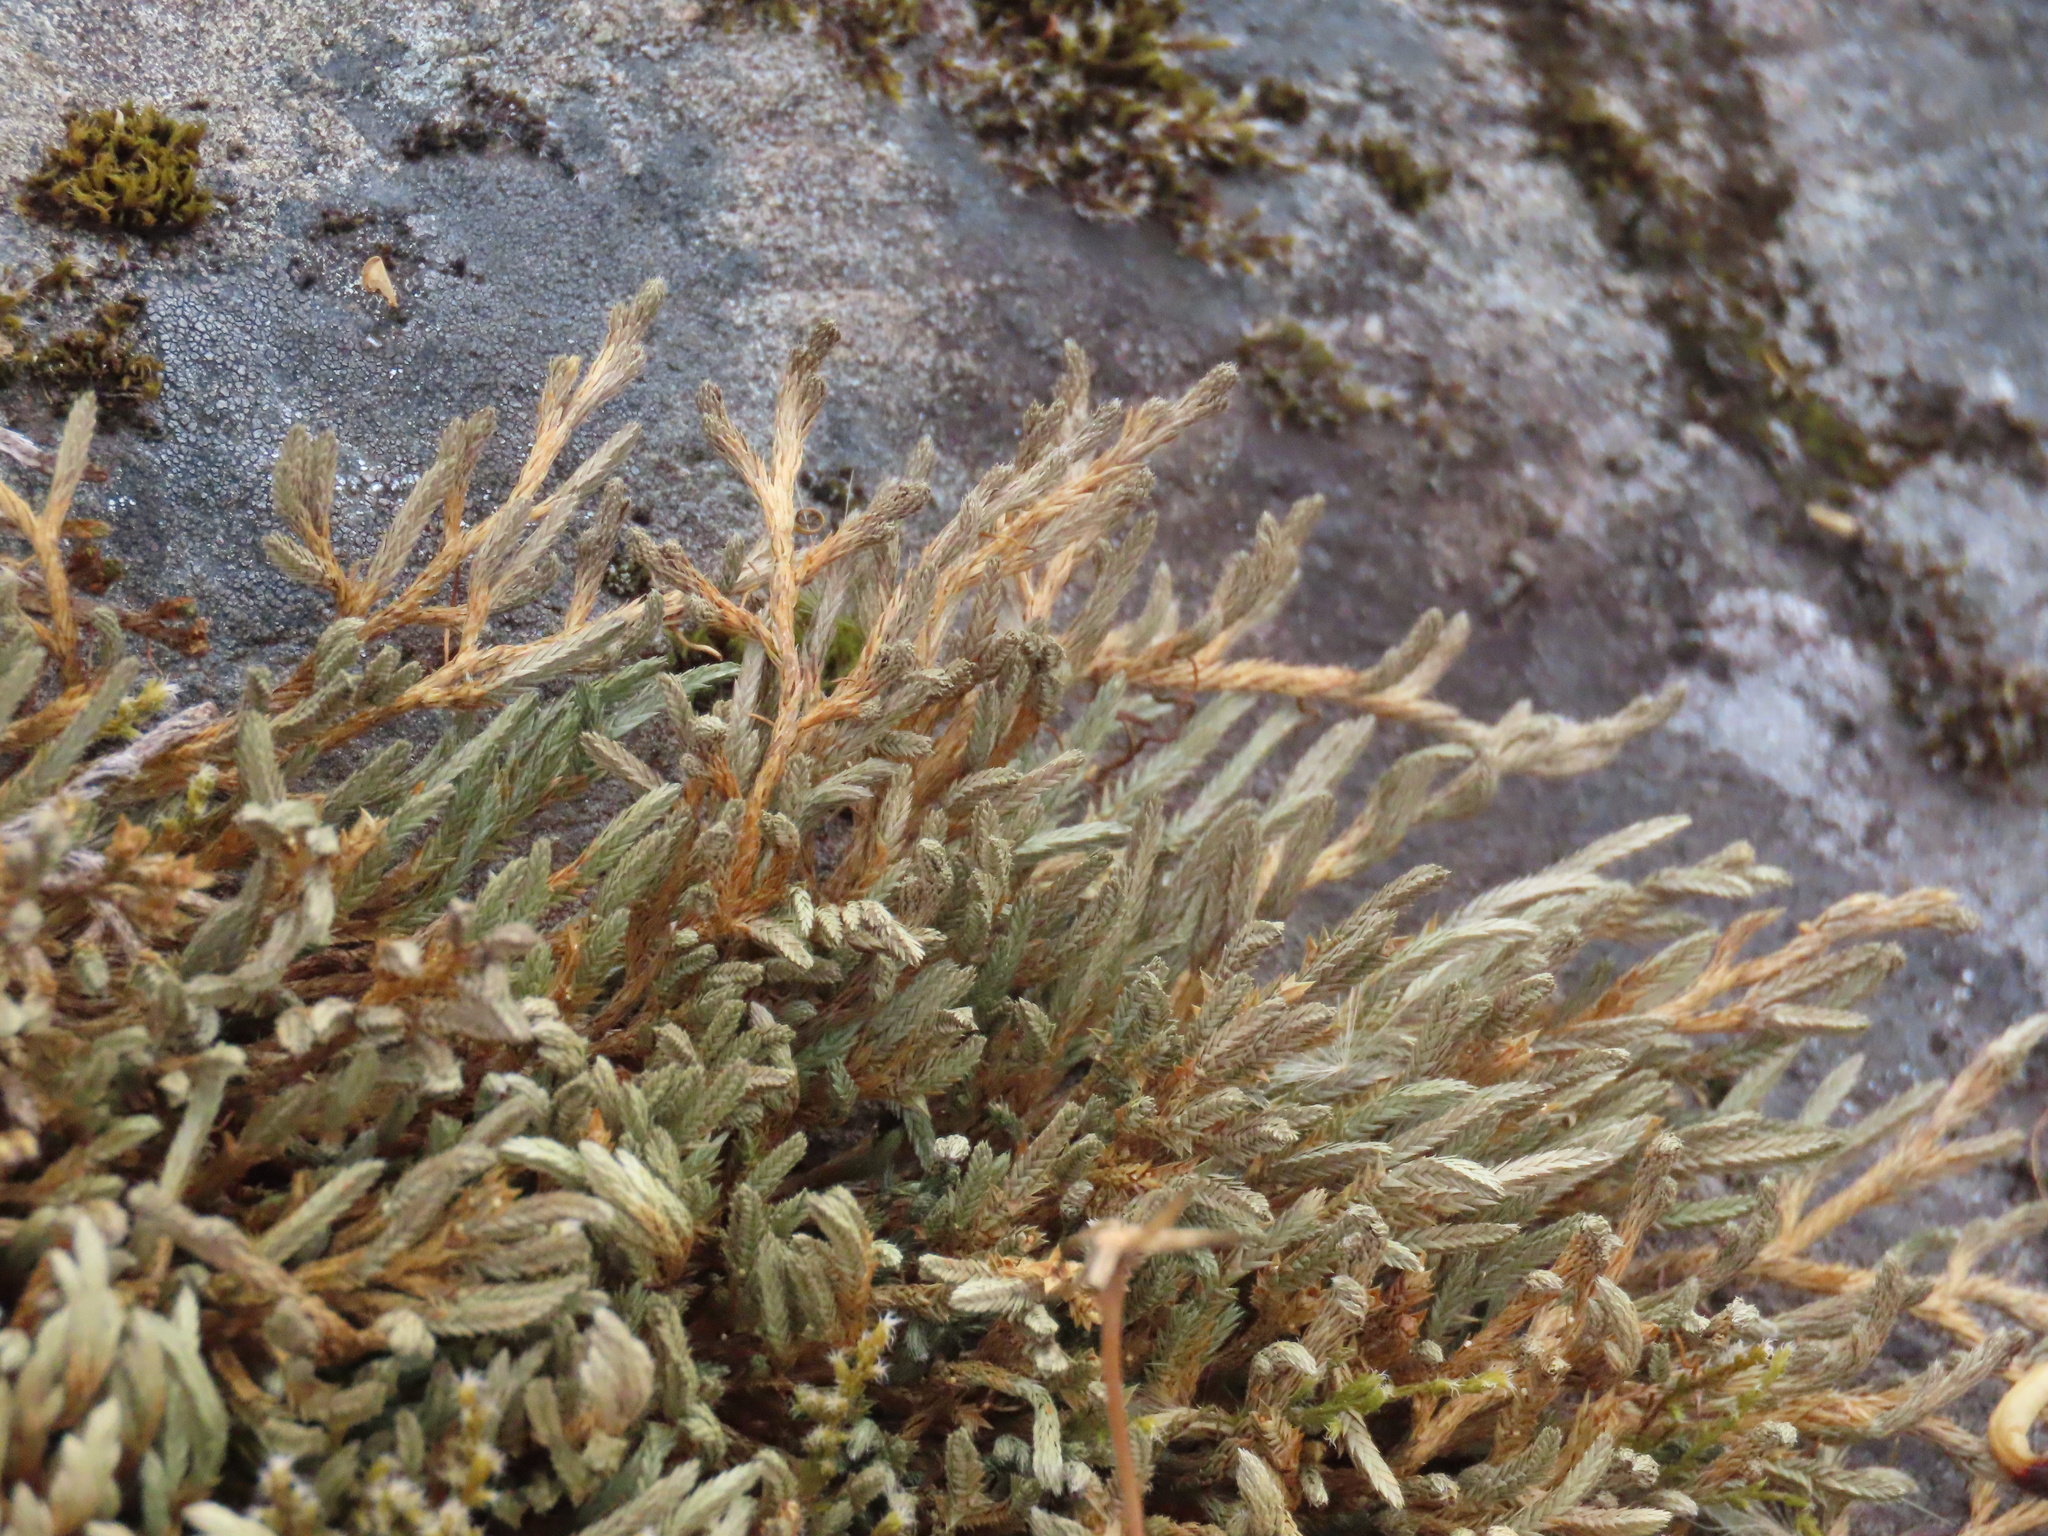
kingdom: Plantae
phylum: Tracheophyta
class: Lycopodiopsida
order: Selaginellales
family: Selaginellaceae
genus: Selaginella
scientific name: Selaginella wallacei
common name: Wallace's selaginella
